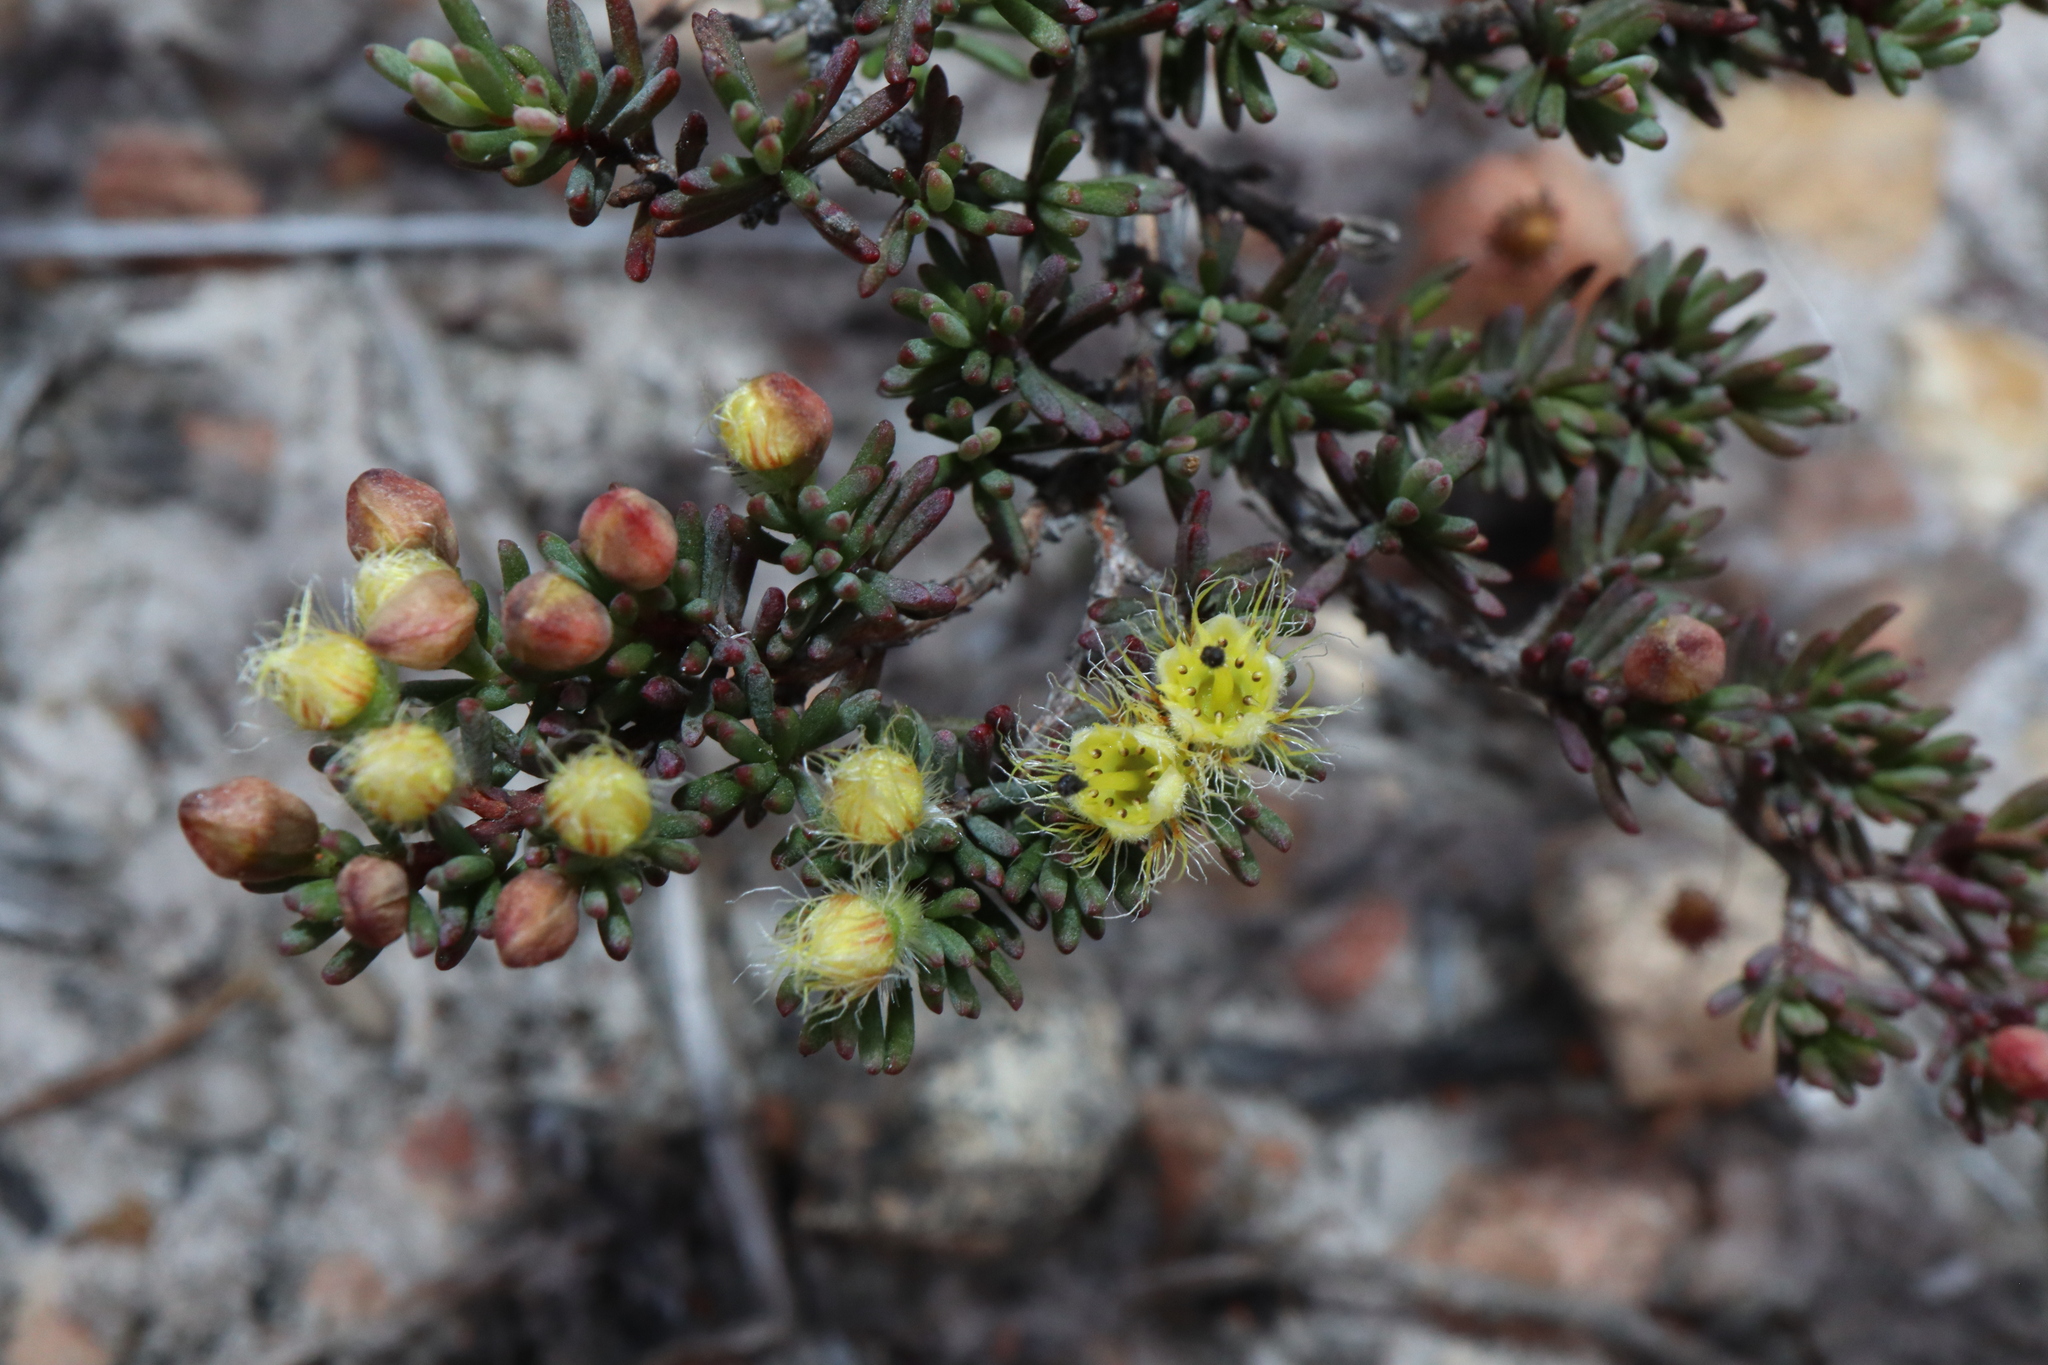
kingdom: Plantae
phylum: Tracheophyta
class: Magnoliopsida
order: Myrtales
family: Myrtaceae
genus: Verticordia
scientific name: Verticordia oxylepis
